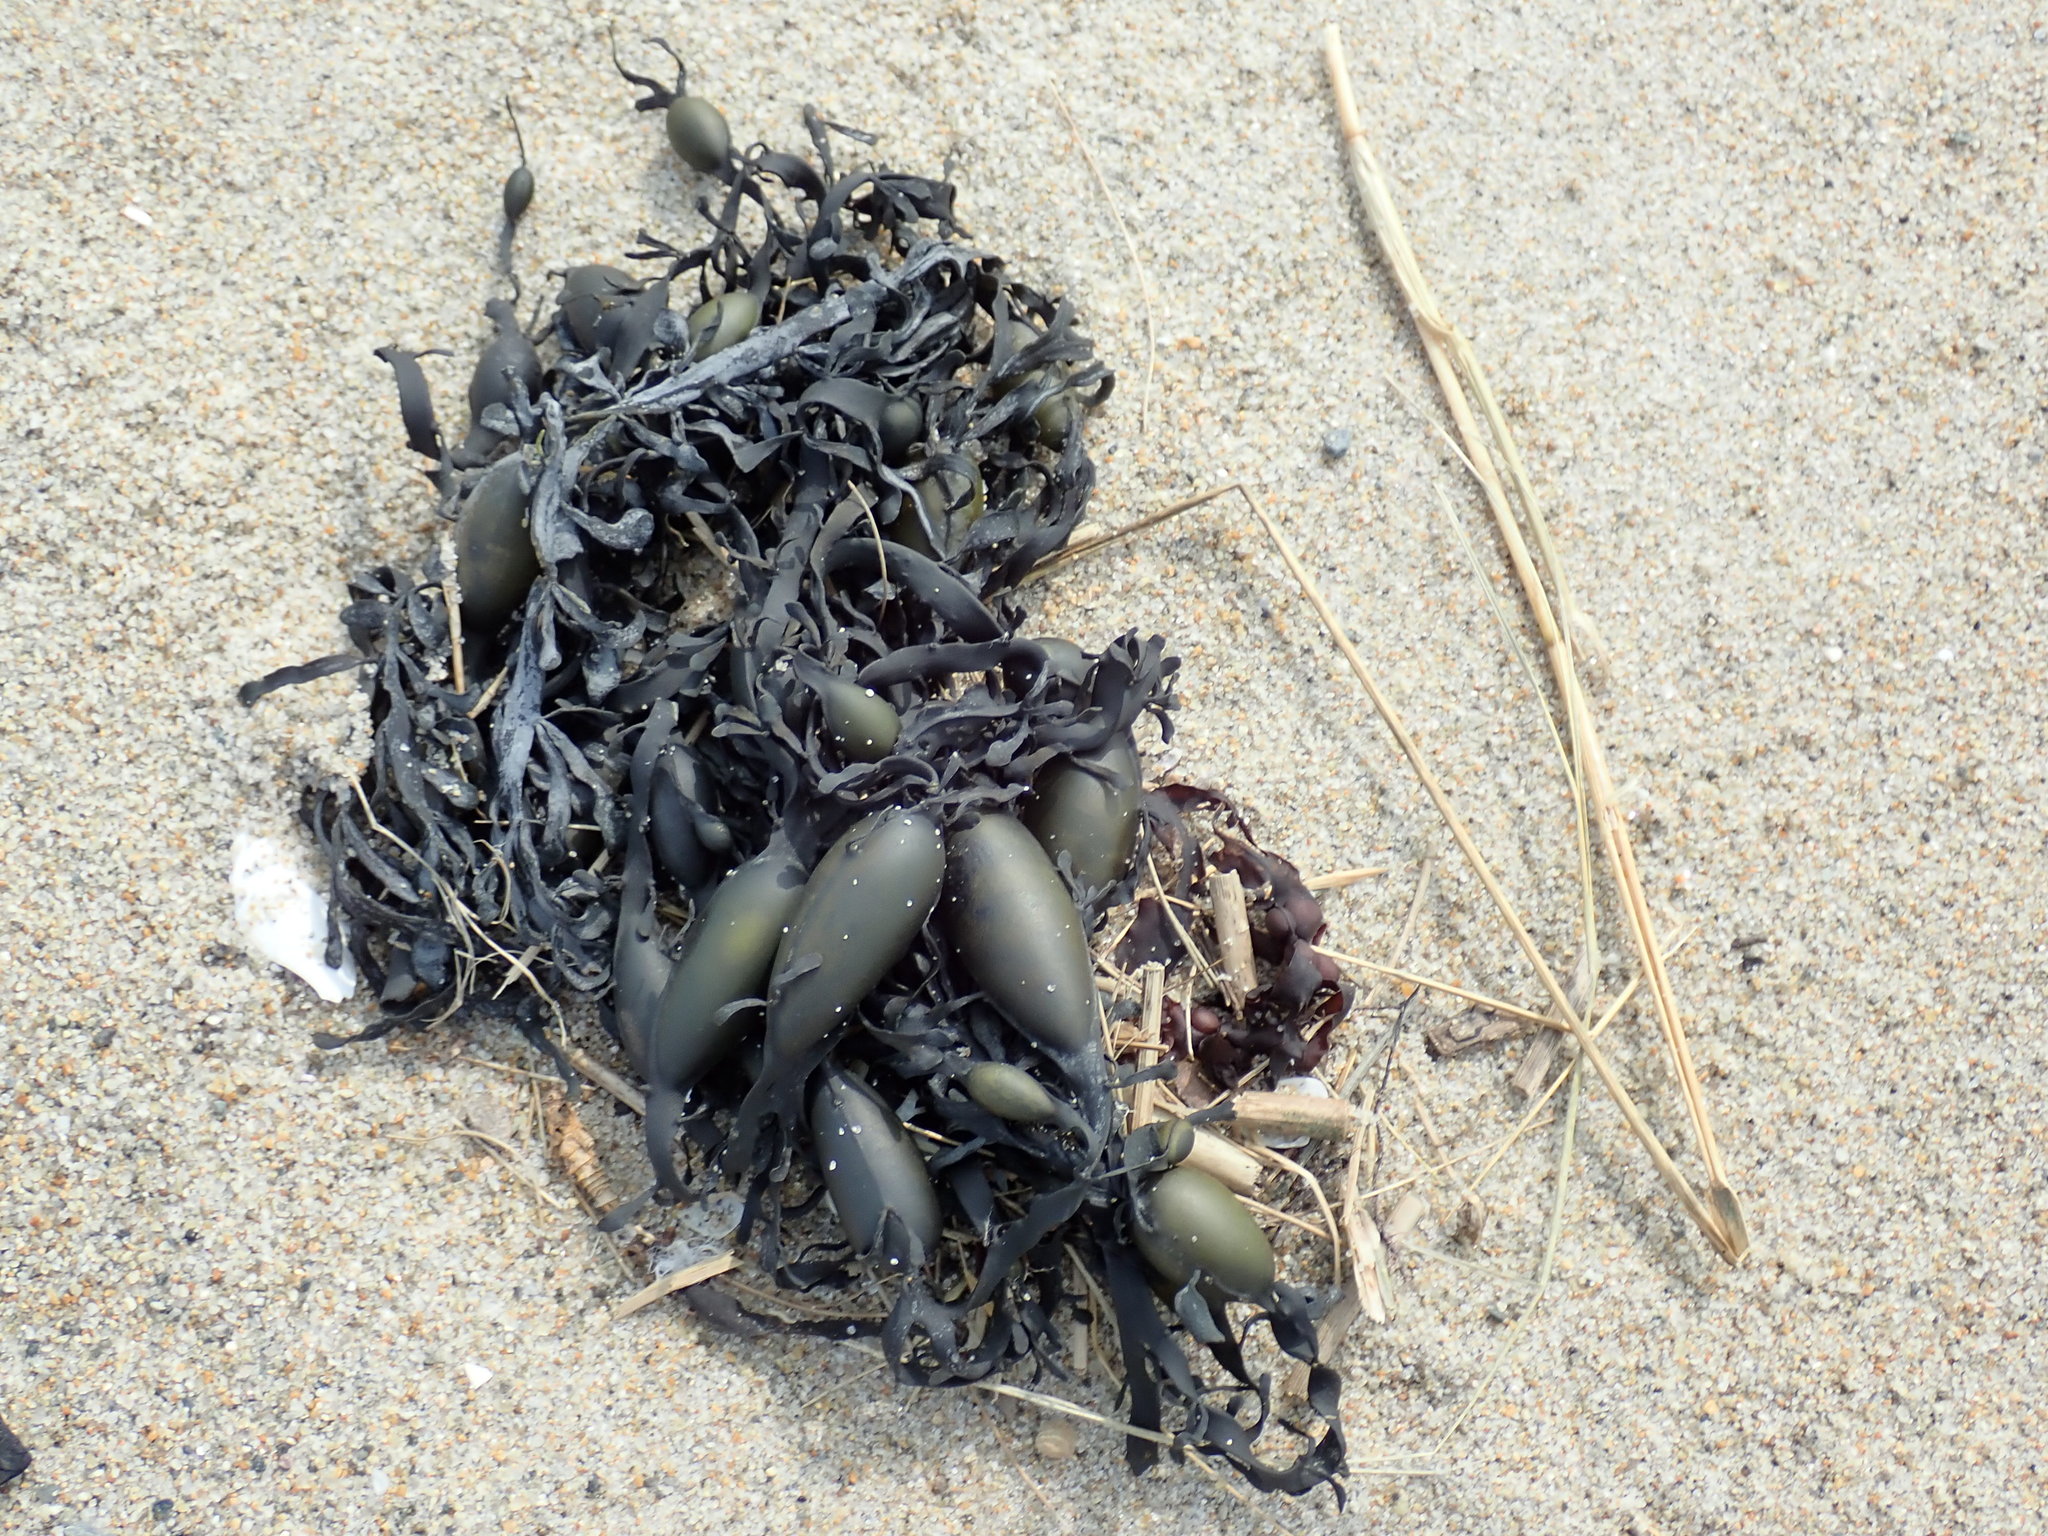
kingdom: Chromista
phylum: Ochrophyta
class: Phaeophyceae
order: Fucales
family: Fucaceae
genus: Ascophyllum
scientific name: Ascophyllum nodosum
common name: Knotted wrack
